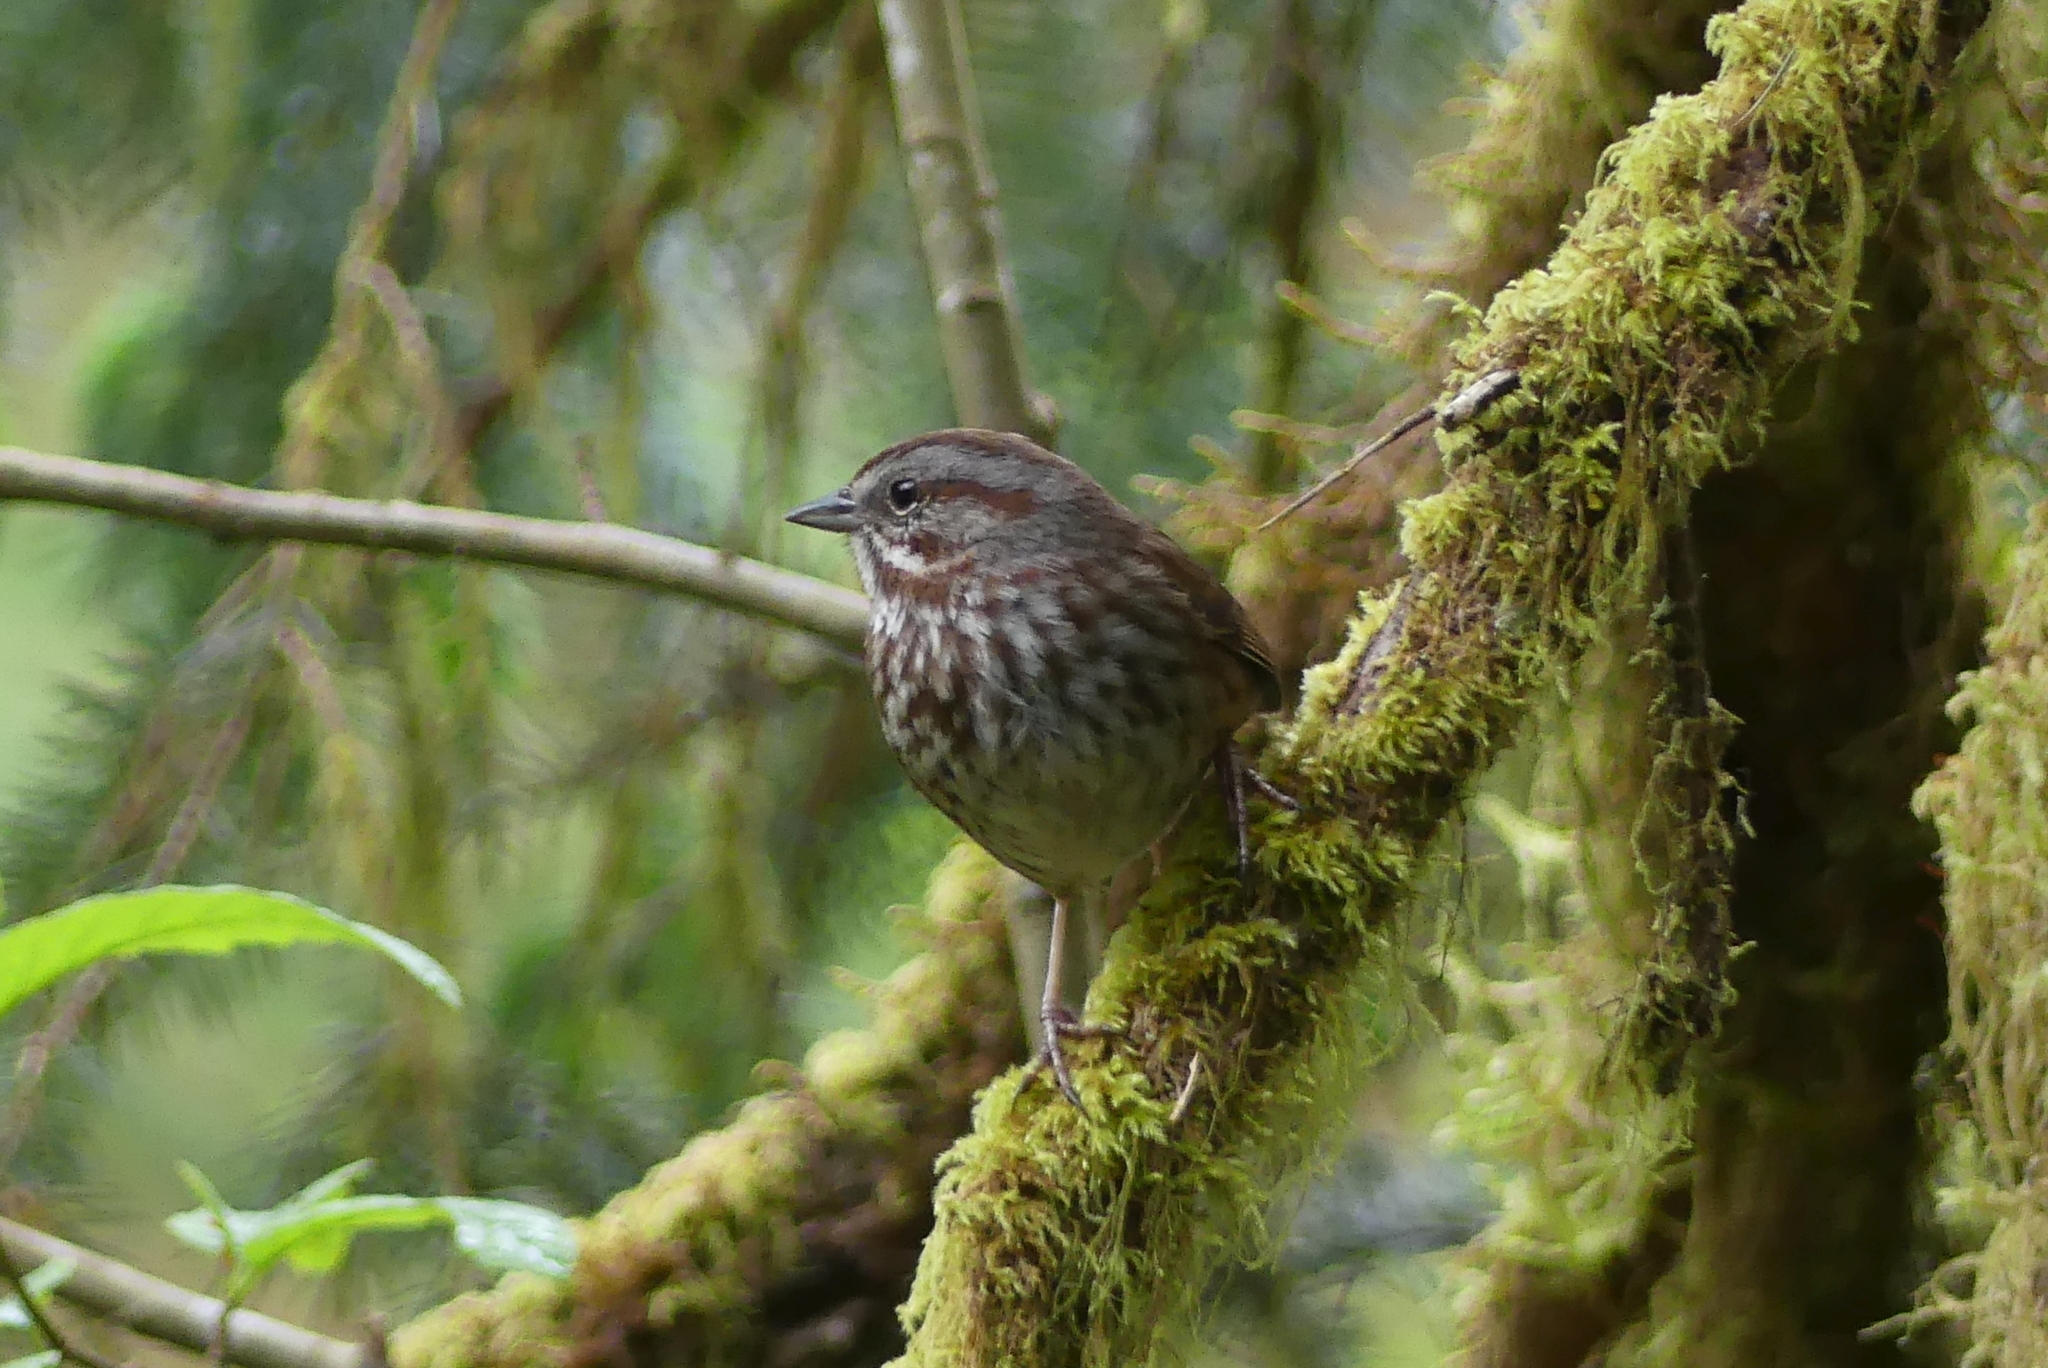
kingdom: Animalia
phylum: Chordata
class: Aves
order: Passeriformes
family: Passerellidae
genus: Melospiza
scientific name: Melospiza melodia
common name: Song sparrow
